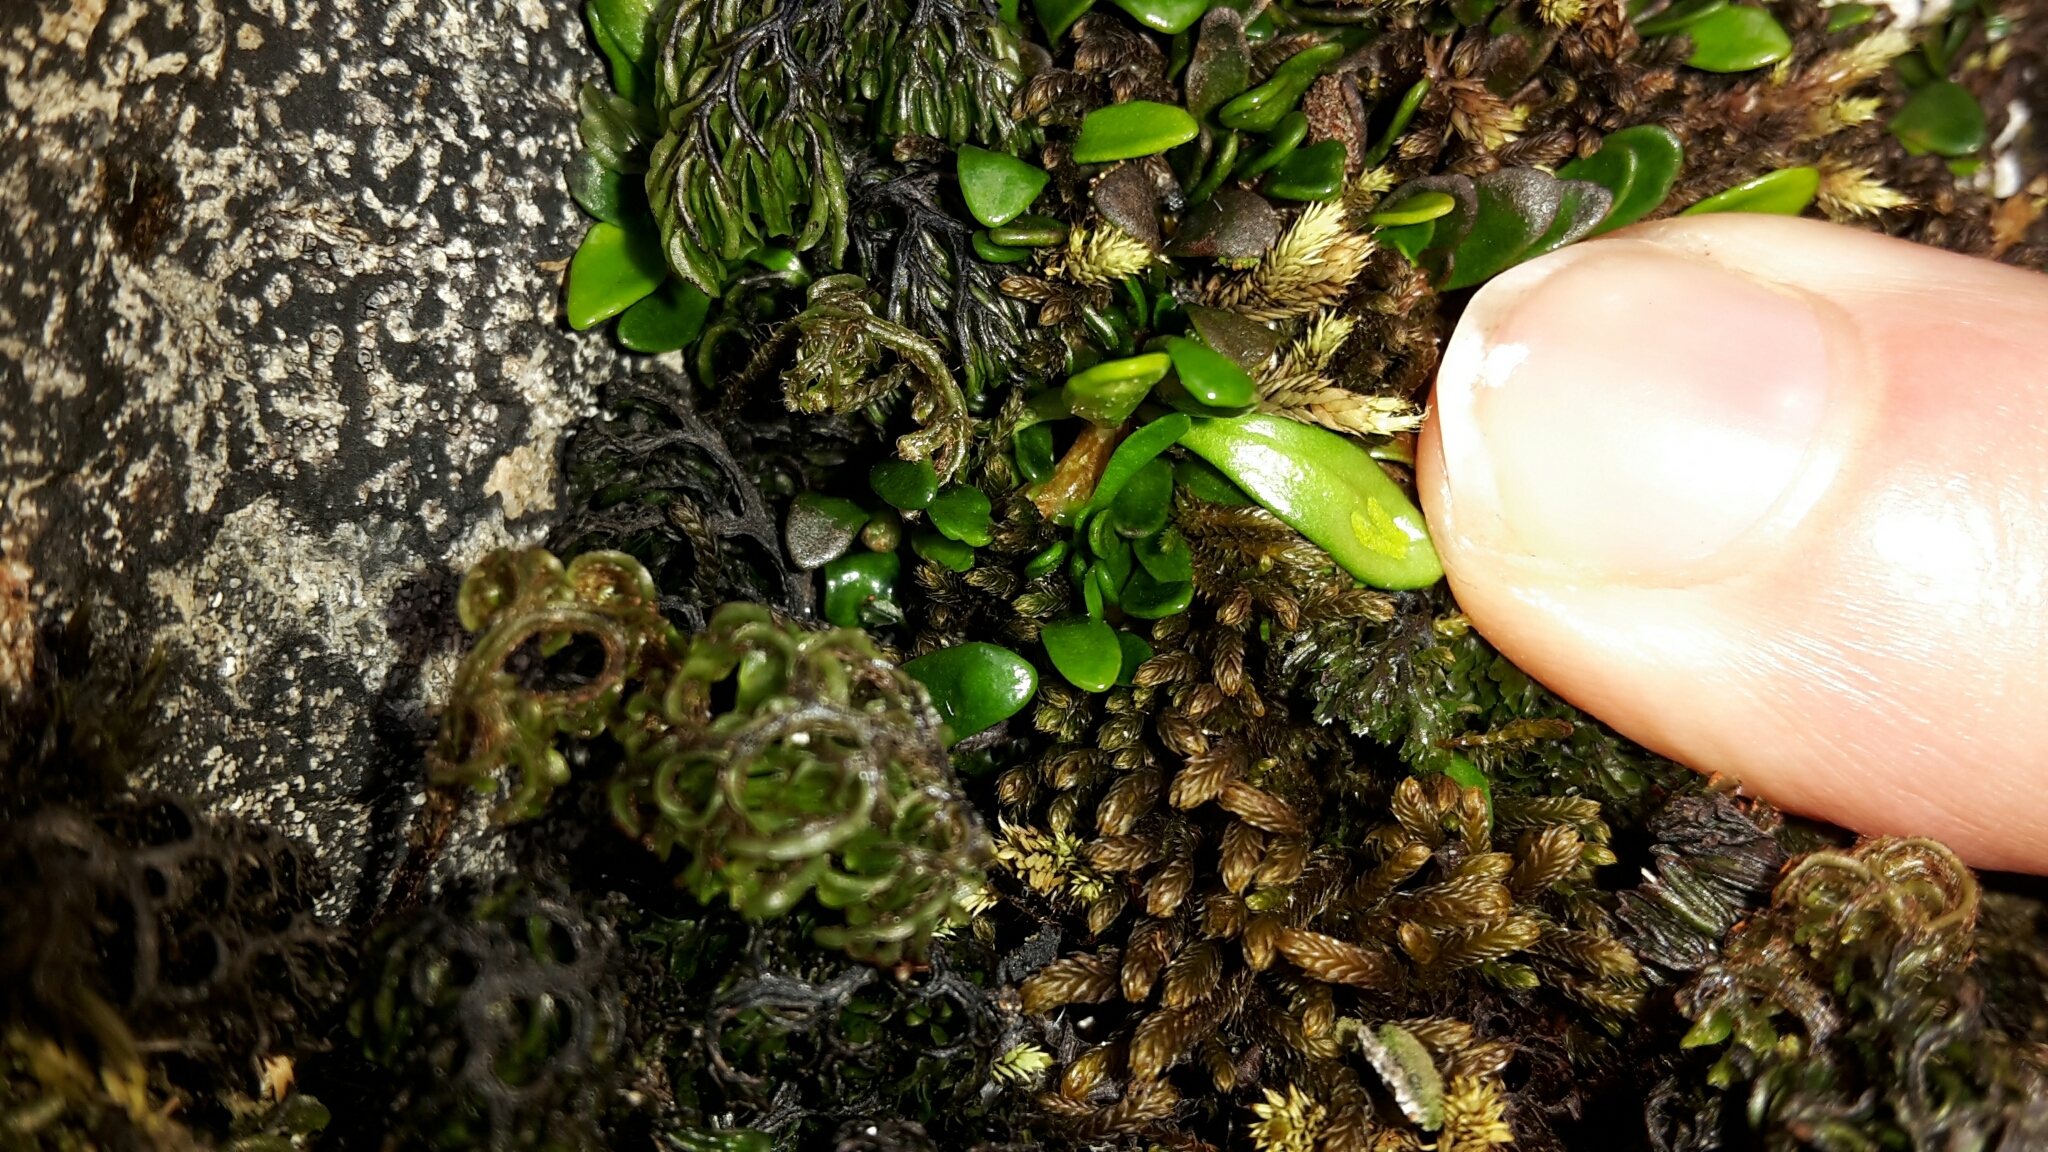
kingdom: Plantae
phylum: Tracheophyta
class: Polypodiopsida
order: Polypodiales
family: Polypodiaceae
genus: Notogrammitis
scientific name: Notogrammitis crassior
